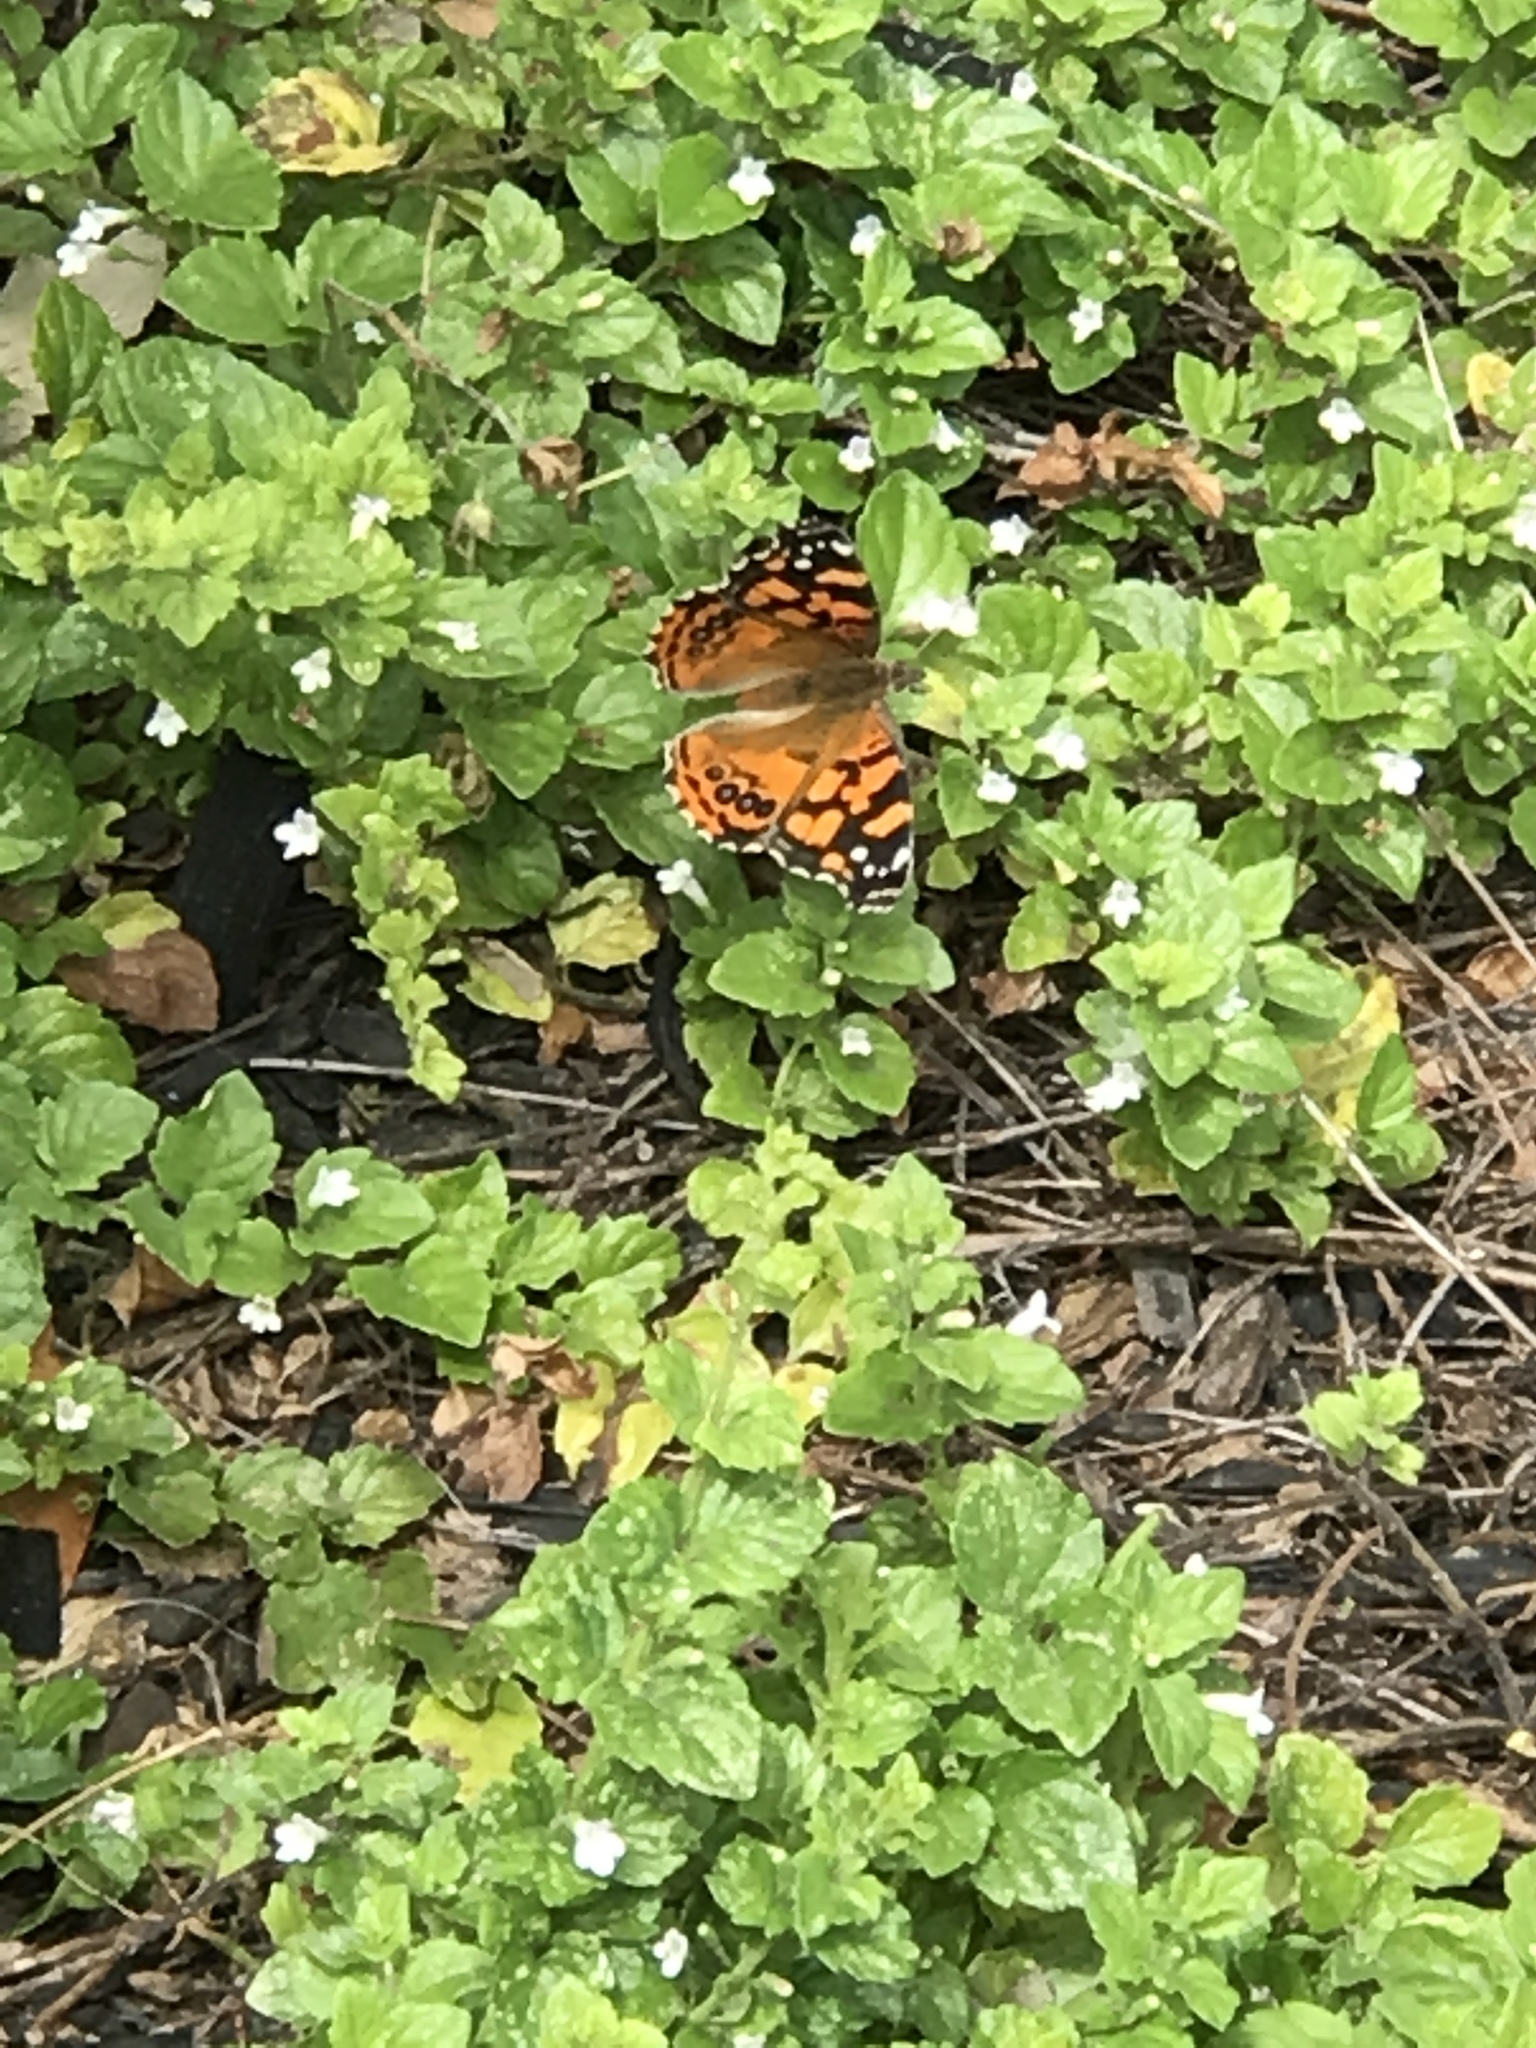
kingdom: Animalia
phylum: Arthropoda
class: Insecta
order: Lepidoptera
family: Nymphalidae
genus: Vanessa
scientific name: Vanessa annabella
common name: West coast lady
